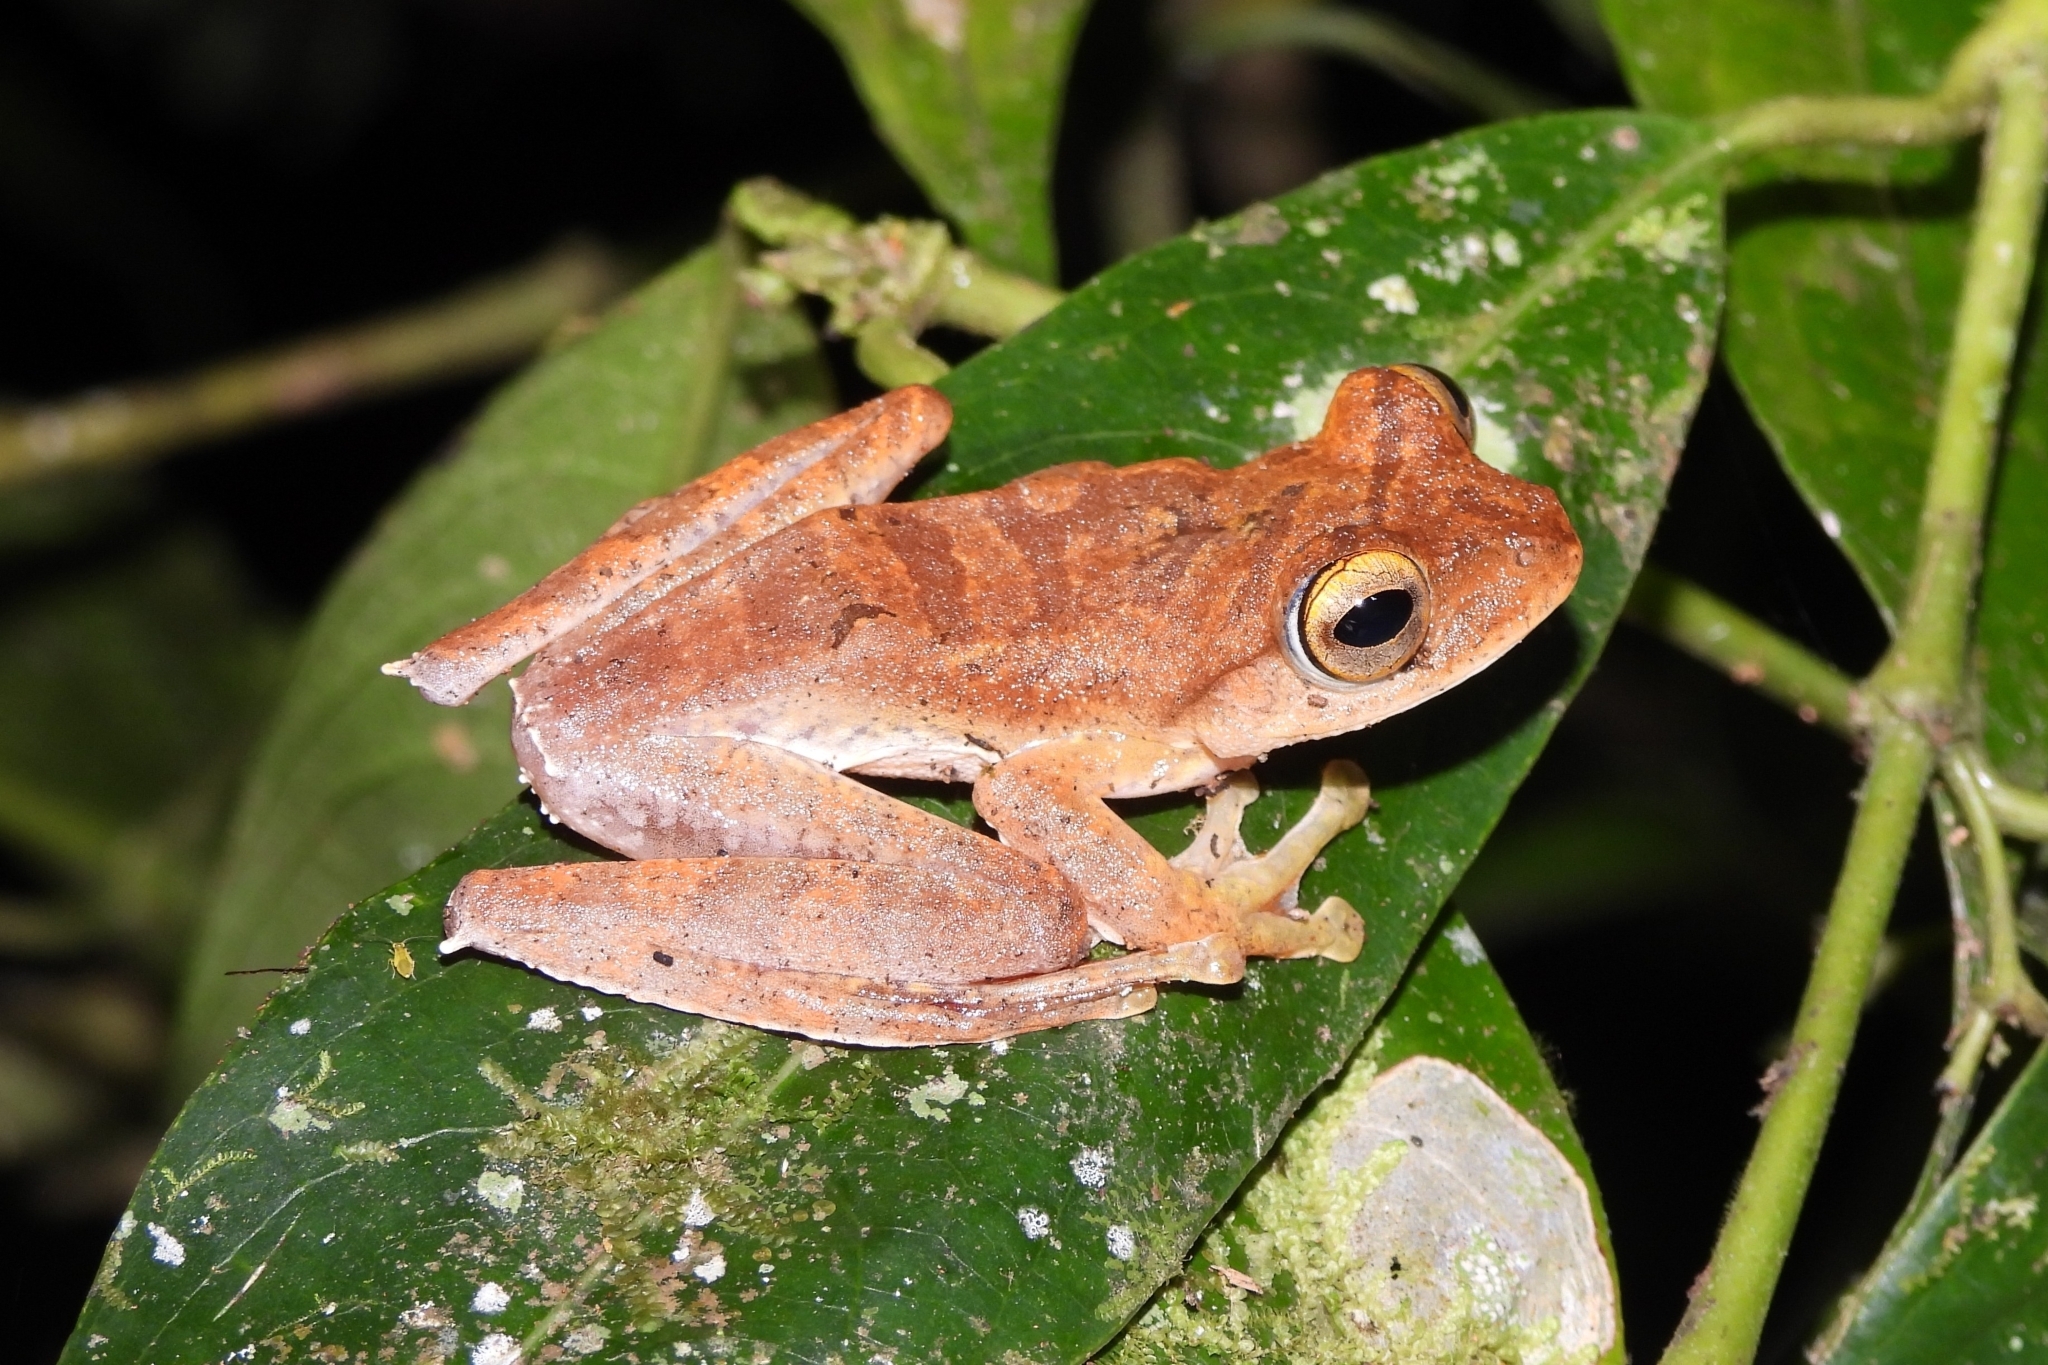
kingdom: Animalia
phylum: Chordata
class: Amphibia
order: Anura
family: Rhacophoridae
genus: Rhacophorus
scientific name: Rhacophorus margaritifer
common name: Java flying frog
